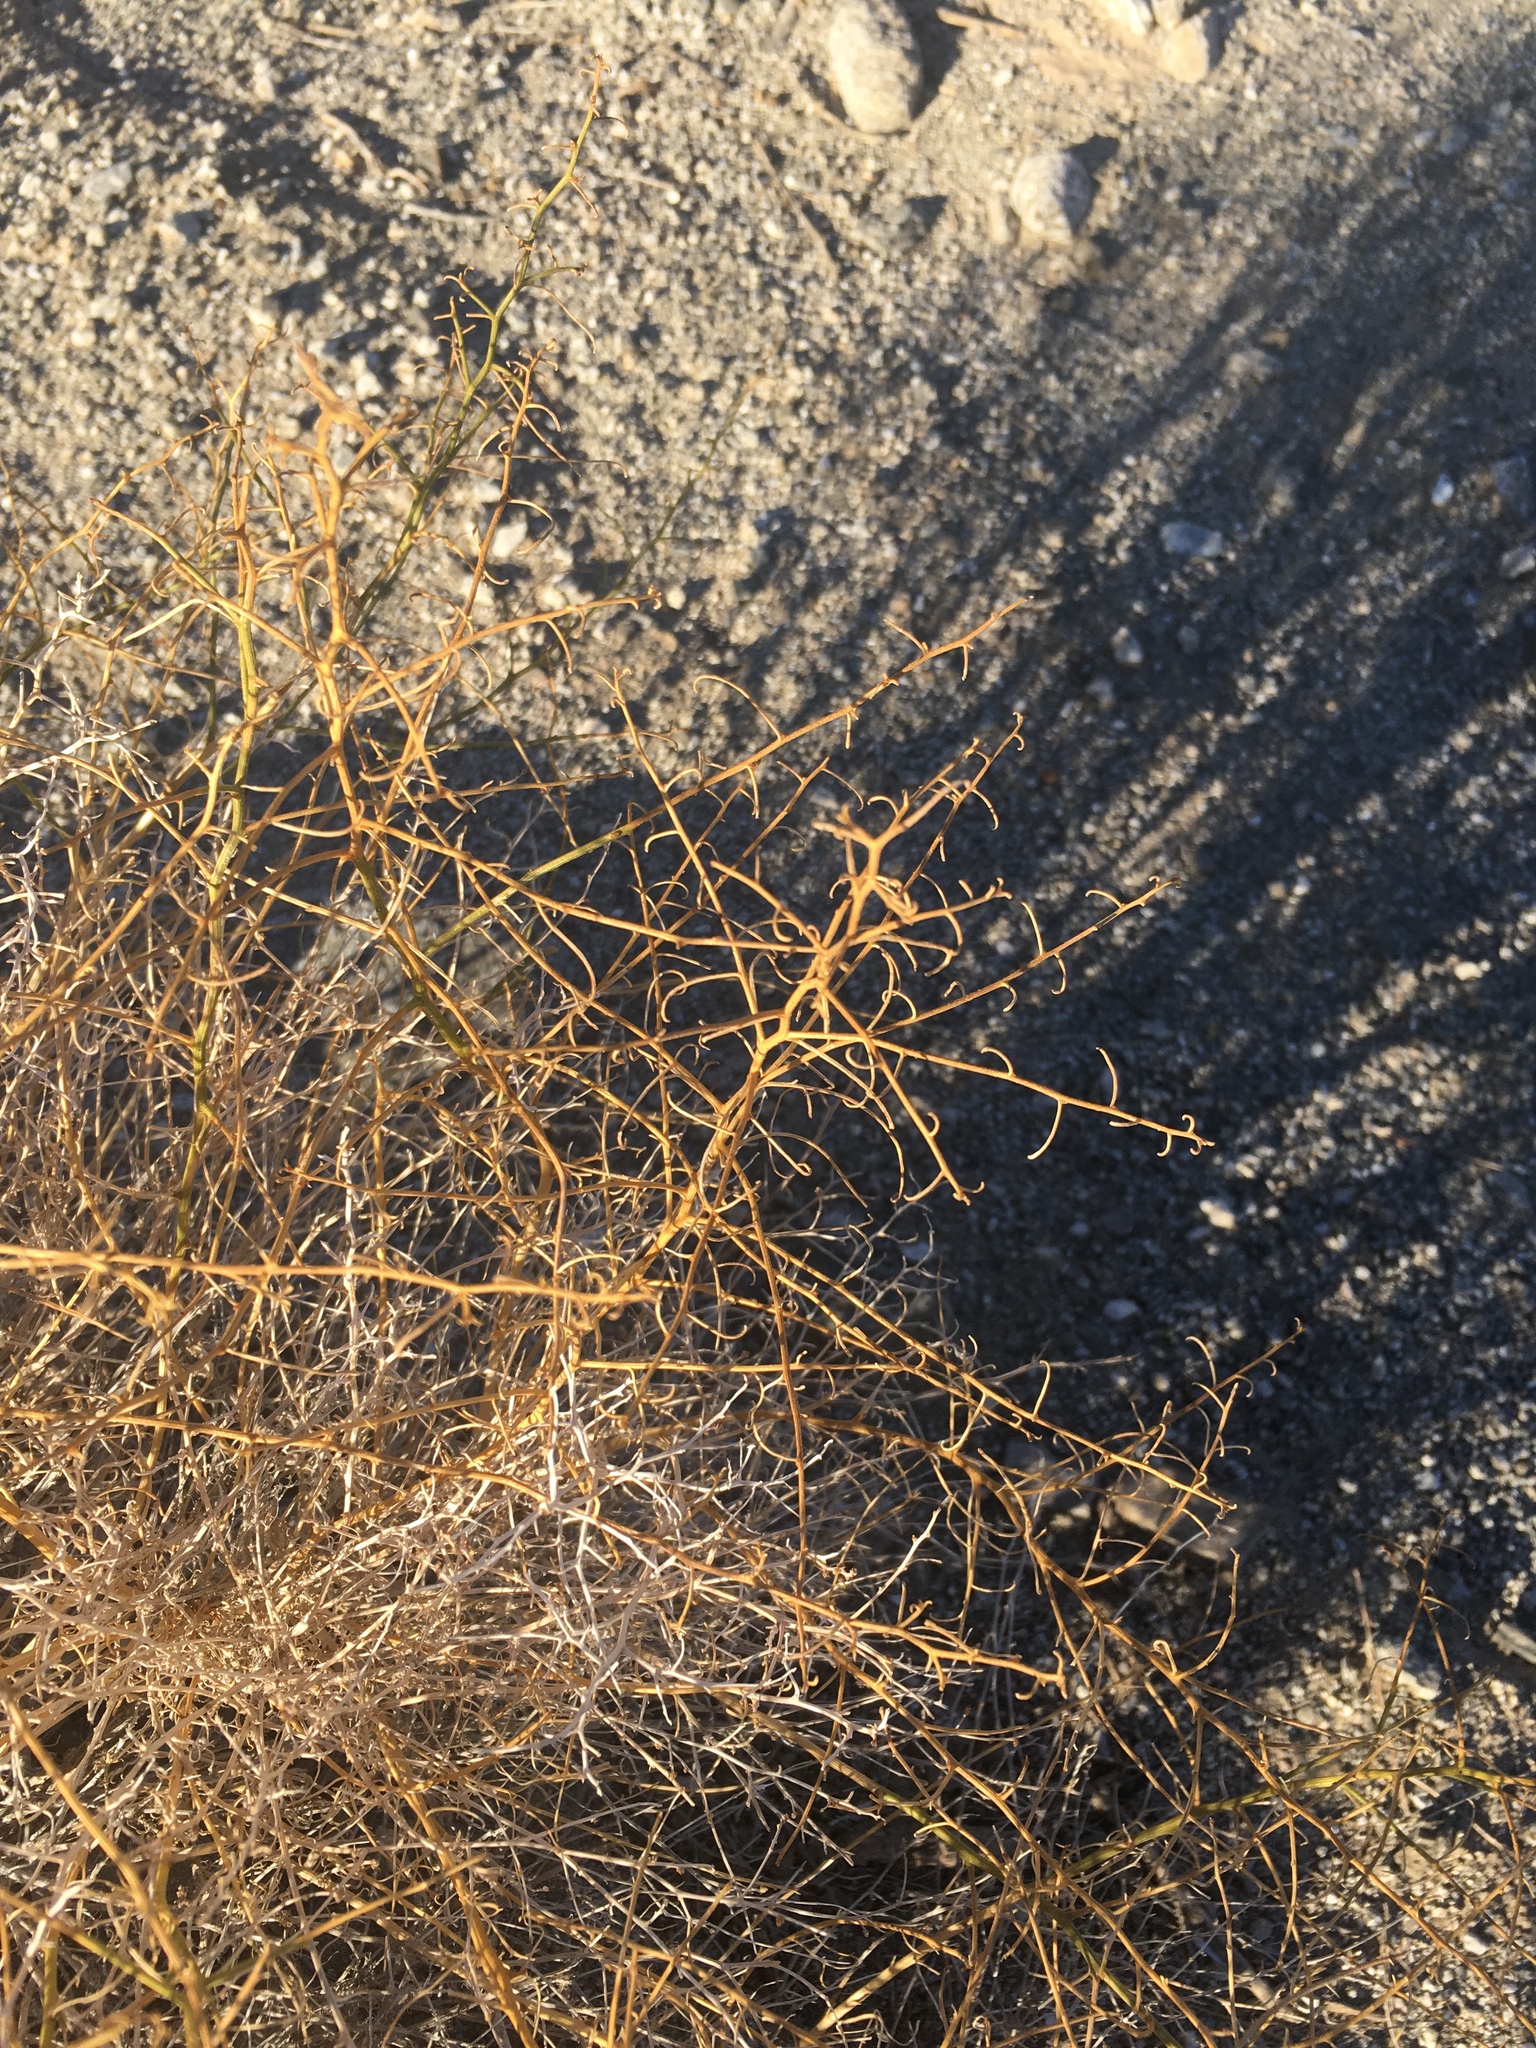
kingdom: Plantae
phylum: Tracheophyta
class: Magnoliopsida
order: Asterales
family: Asteraceae
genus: Ambrosia
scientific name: Ambrosia salsola
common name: Burrobrush
